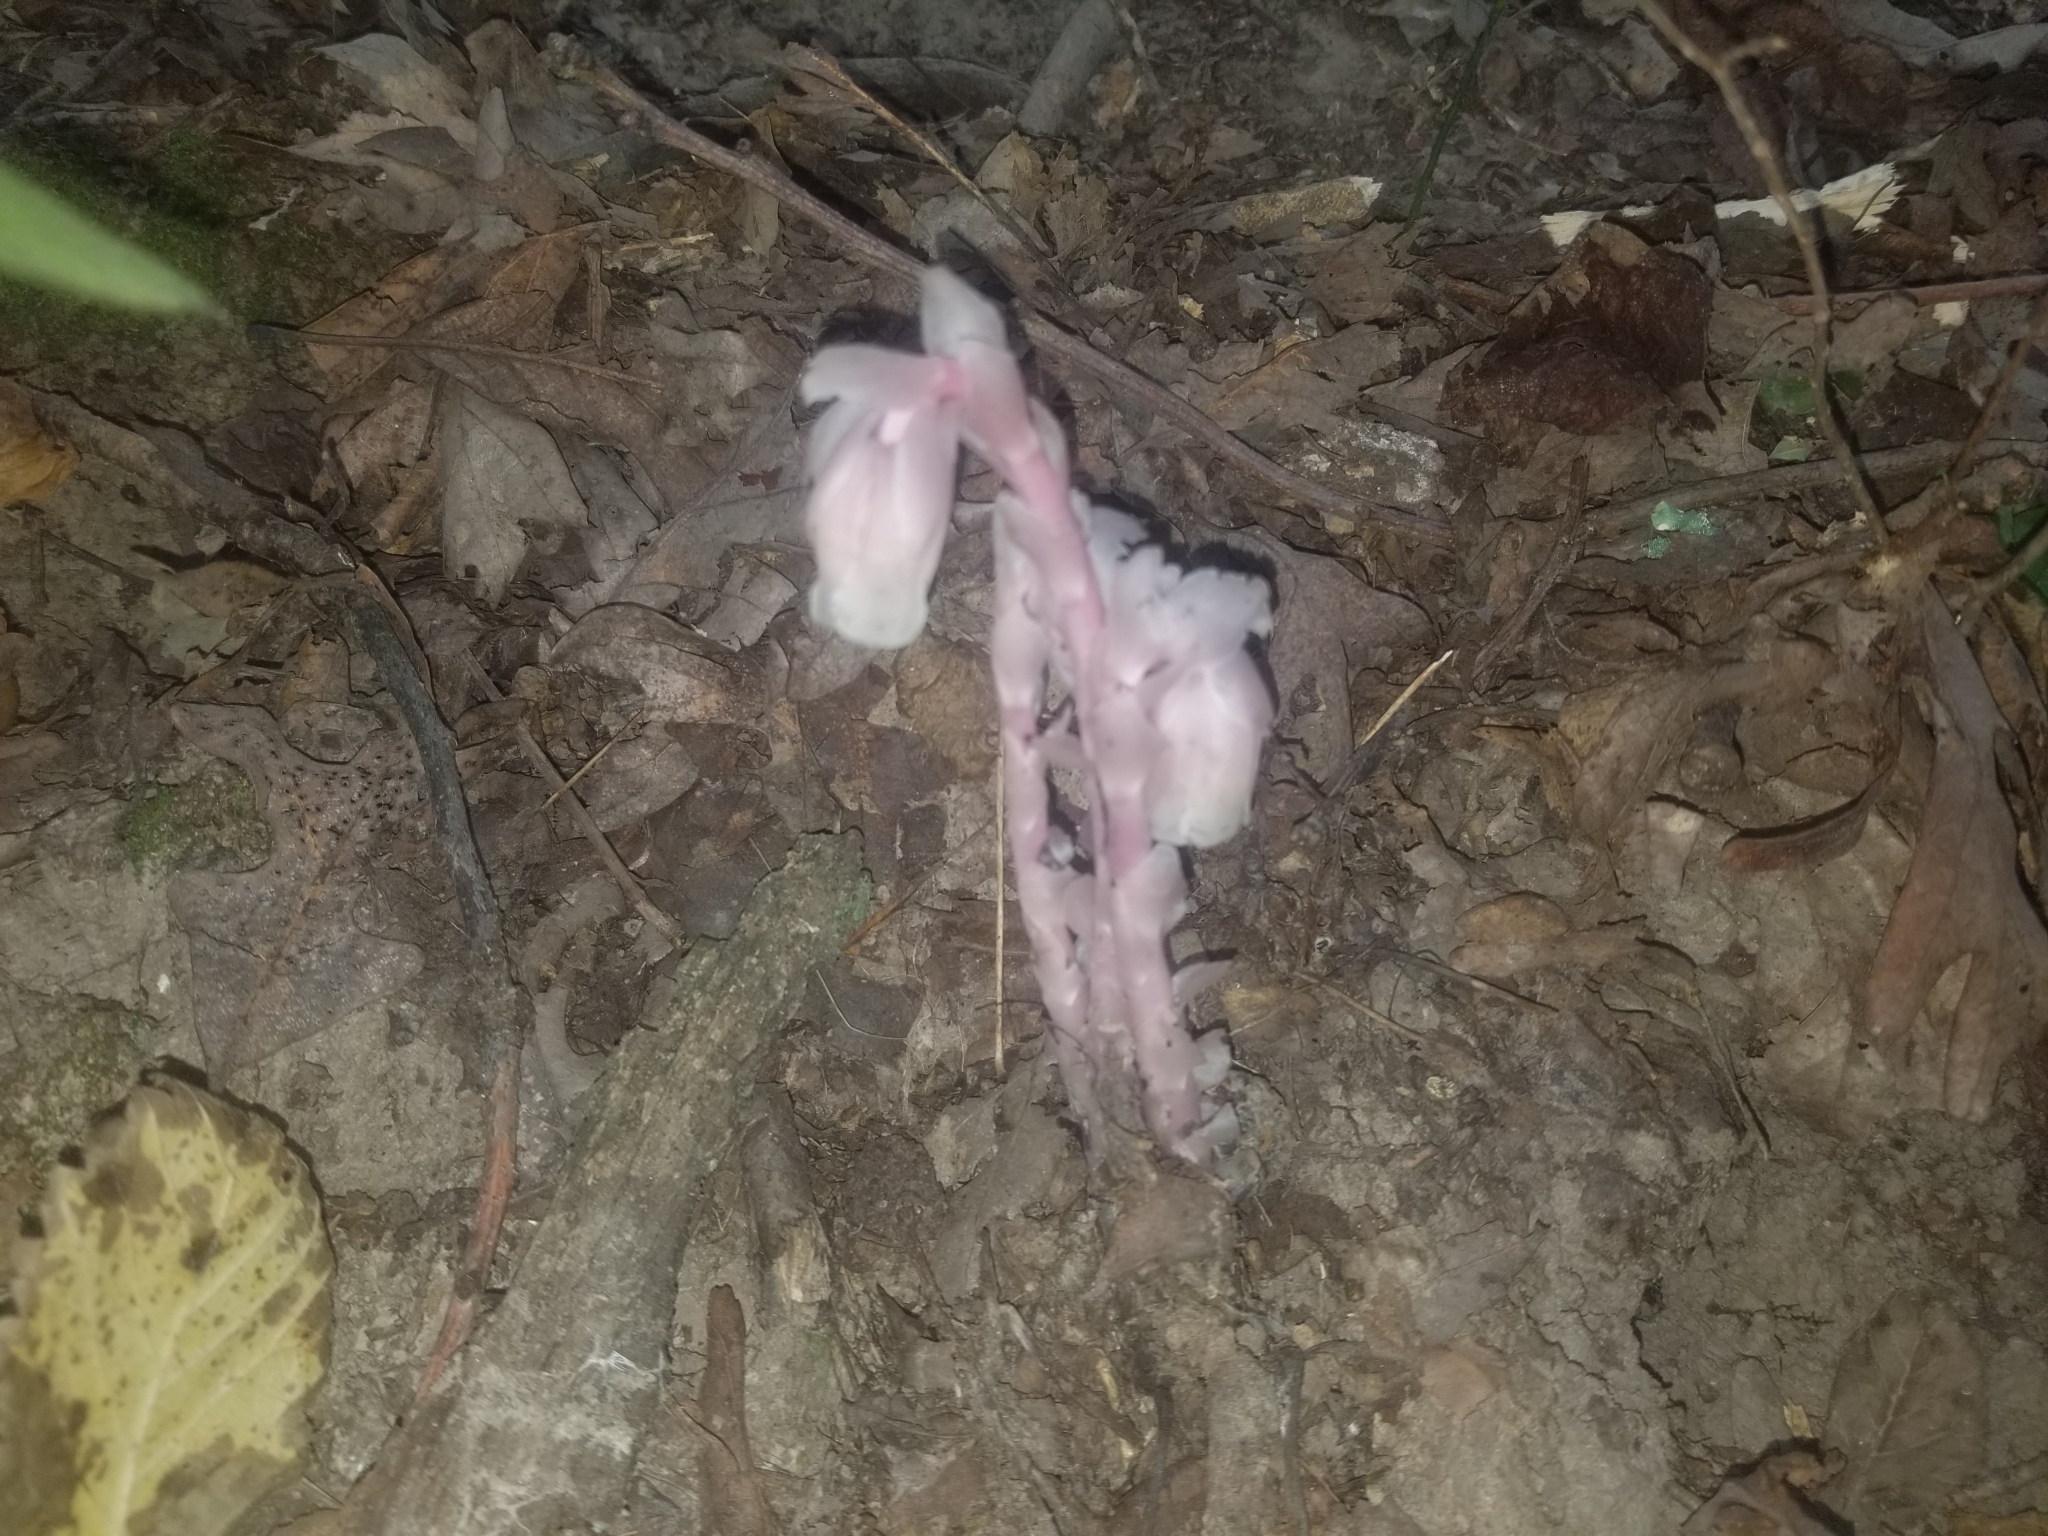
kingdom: Plantae
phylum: Tracheophyta
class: Magnoliopsida
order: Ericales
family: Ericaceae
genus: Monotropa
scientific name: Monotropa uniflora
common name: Convulsion root
